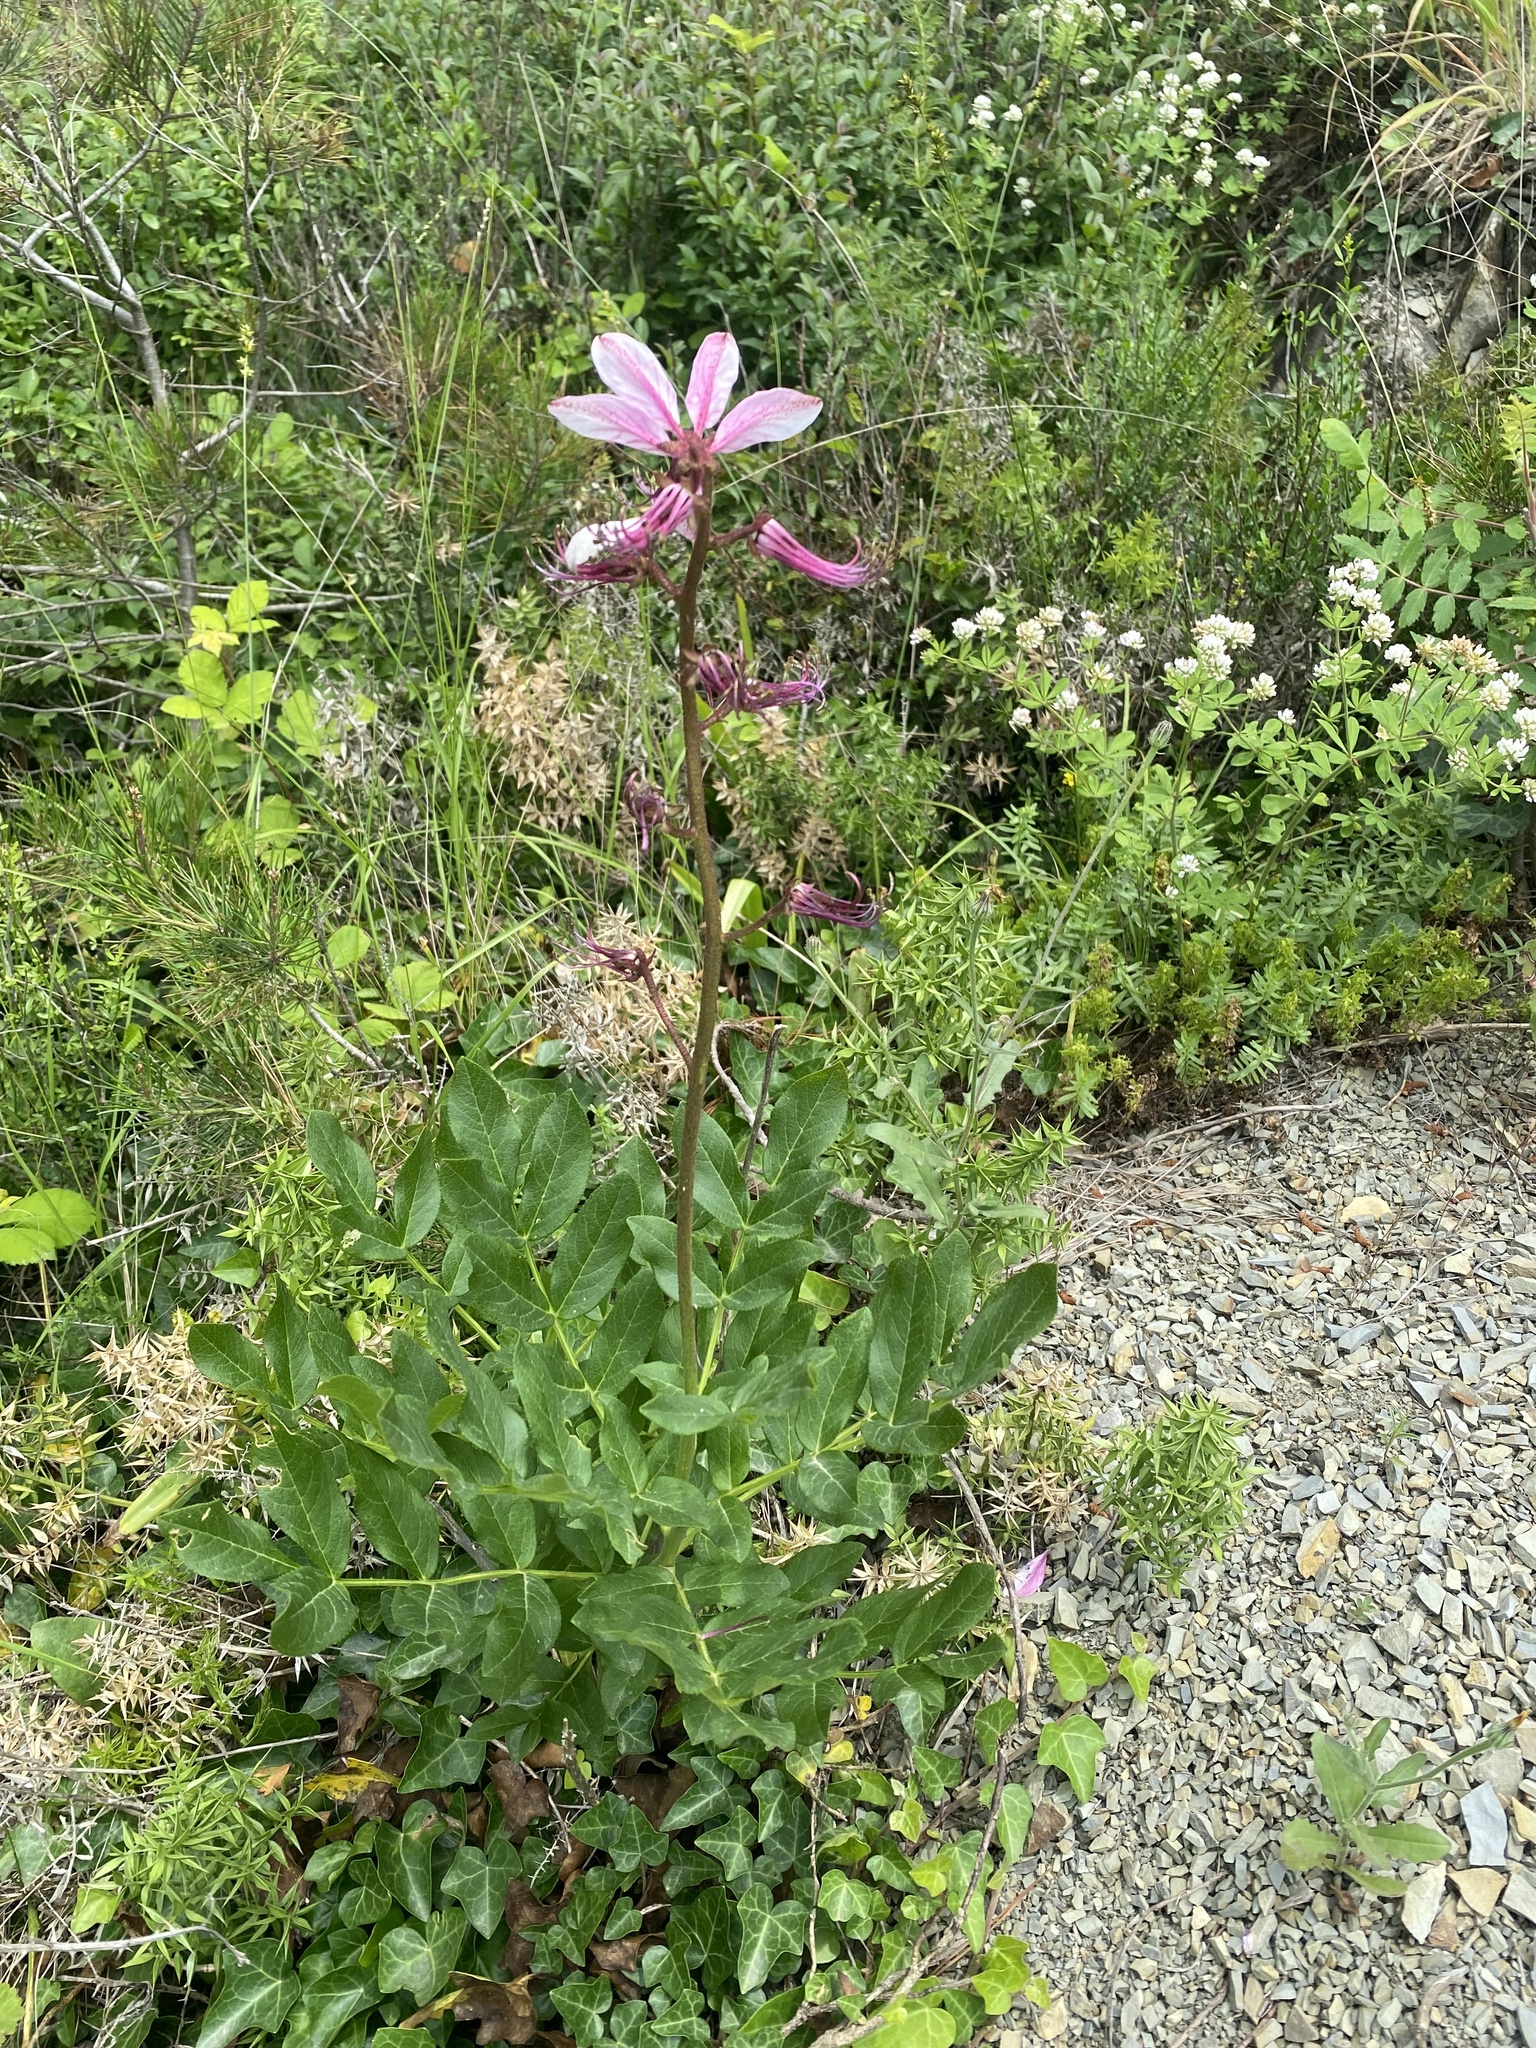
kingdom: Plantae
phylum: Tracheophyta
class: Magnoliopsida
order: Sapindales
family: Rutaceae
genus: Dictamnus
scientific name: Dictamnus albus
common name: Gasplant
